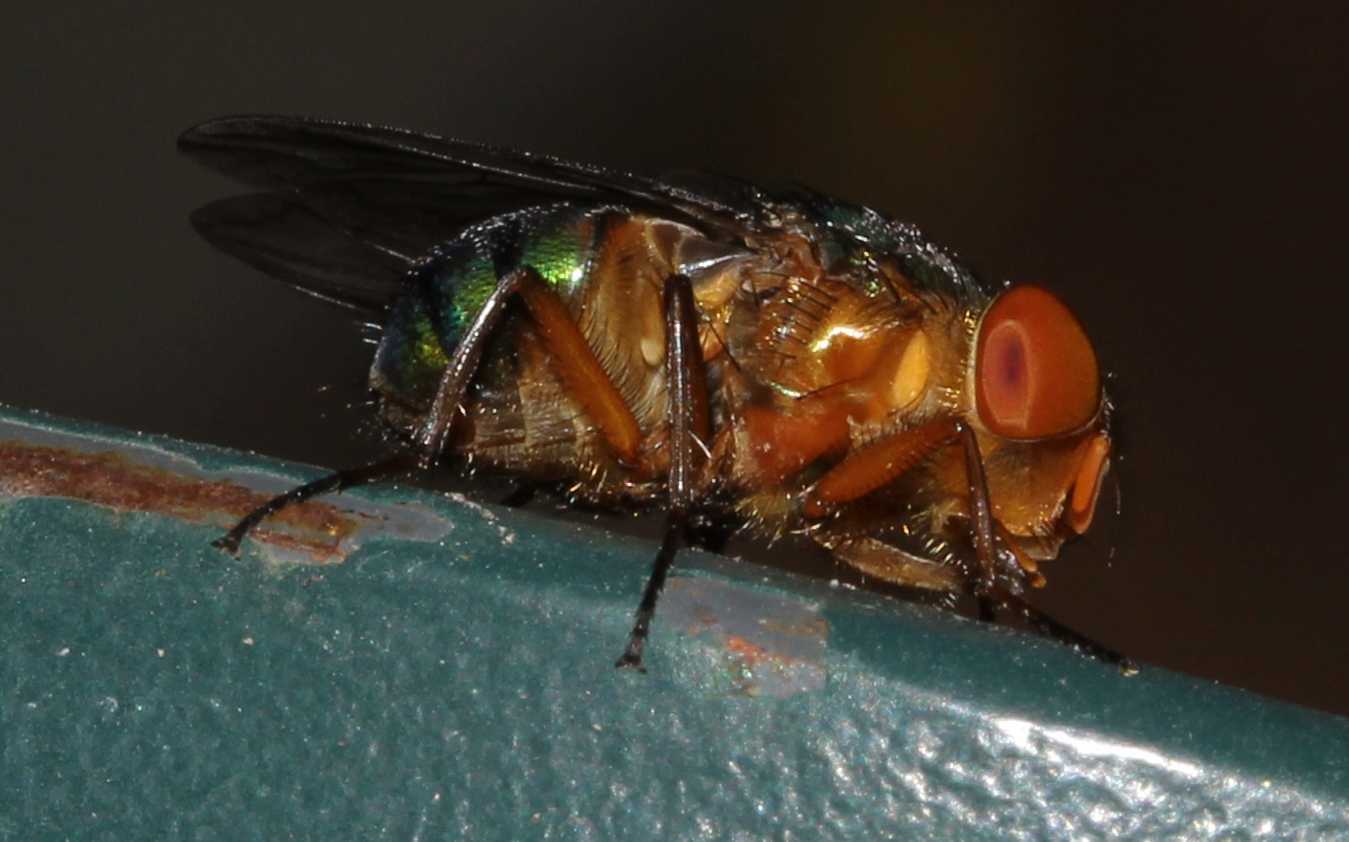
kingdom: Animalia
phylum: Arthropoda
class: Insecta
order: Diptera
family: Calliphoridae
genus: Hemilucilia
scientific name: Hemilucilia
